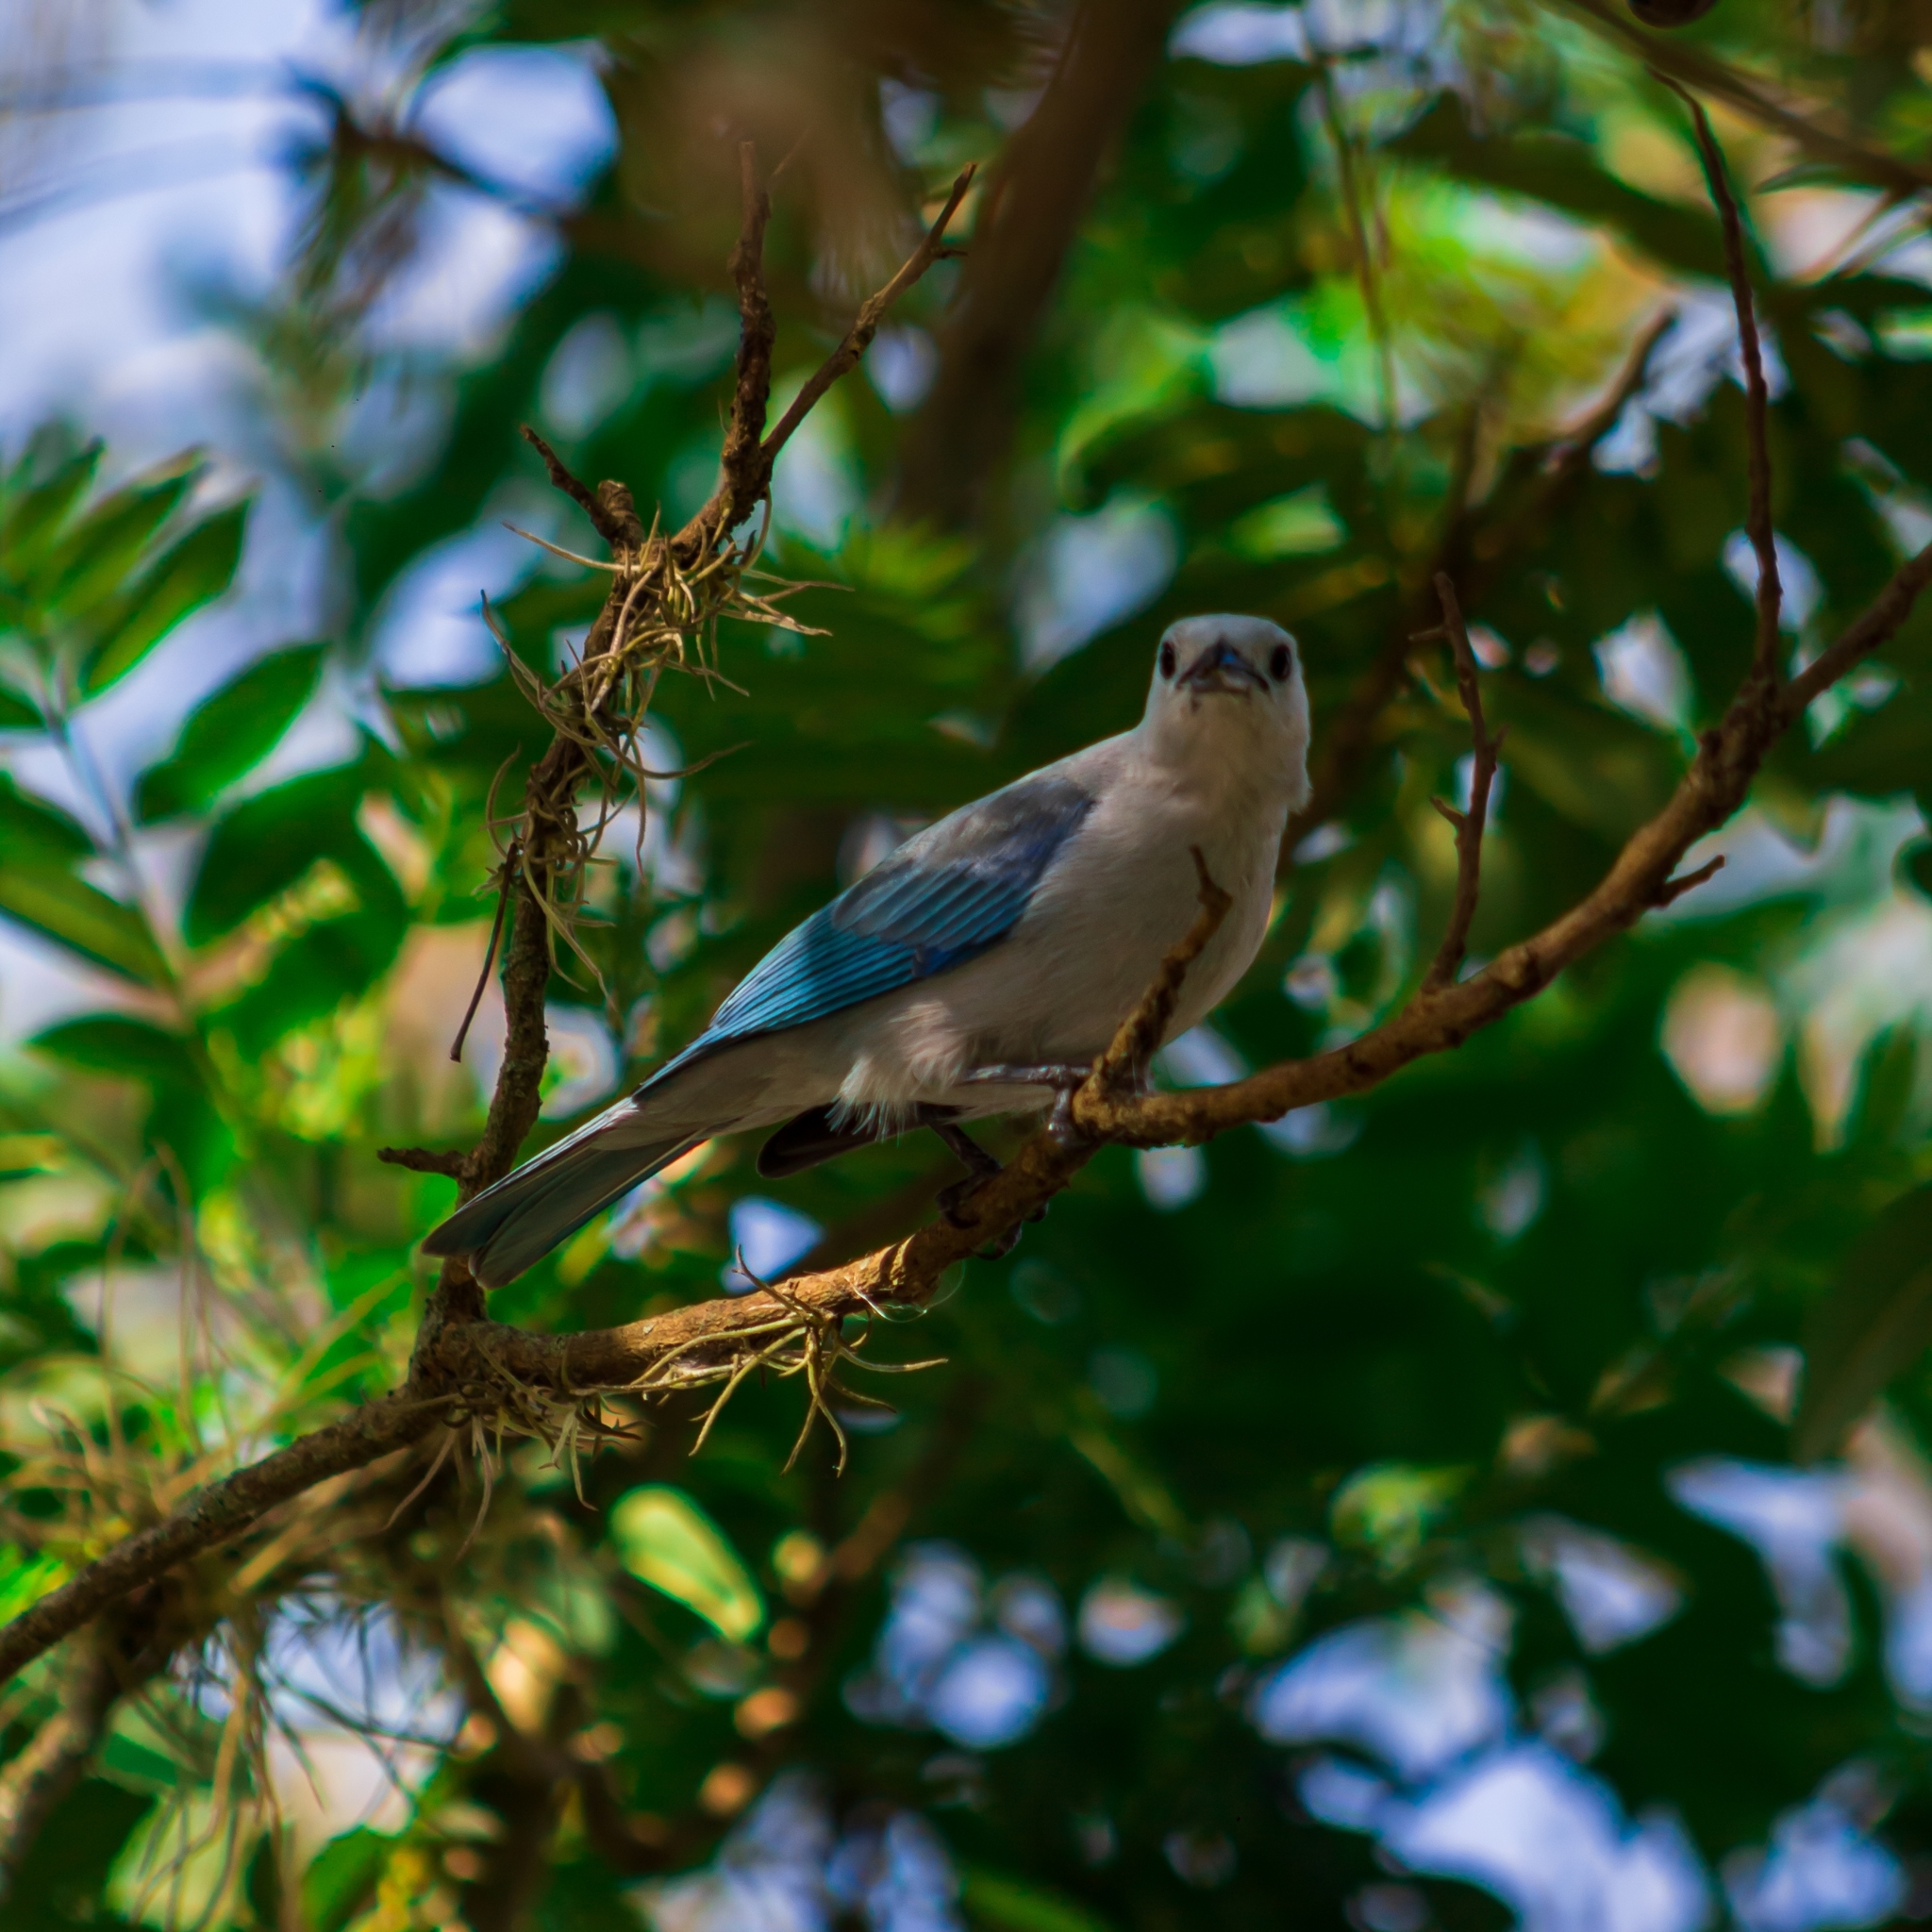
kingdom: Animalia
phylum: Chordata
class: Aves
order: Passeriformes
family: Thraupidae
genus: Thraupis
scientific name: Thraupis episcopus
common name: Blue-grey tanager
